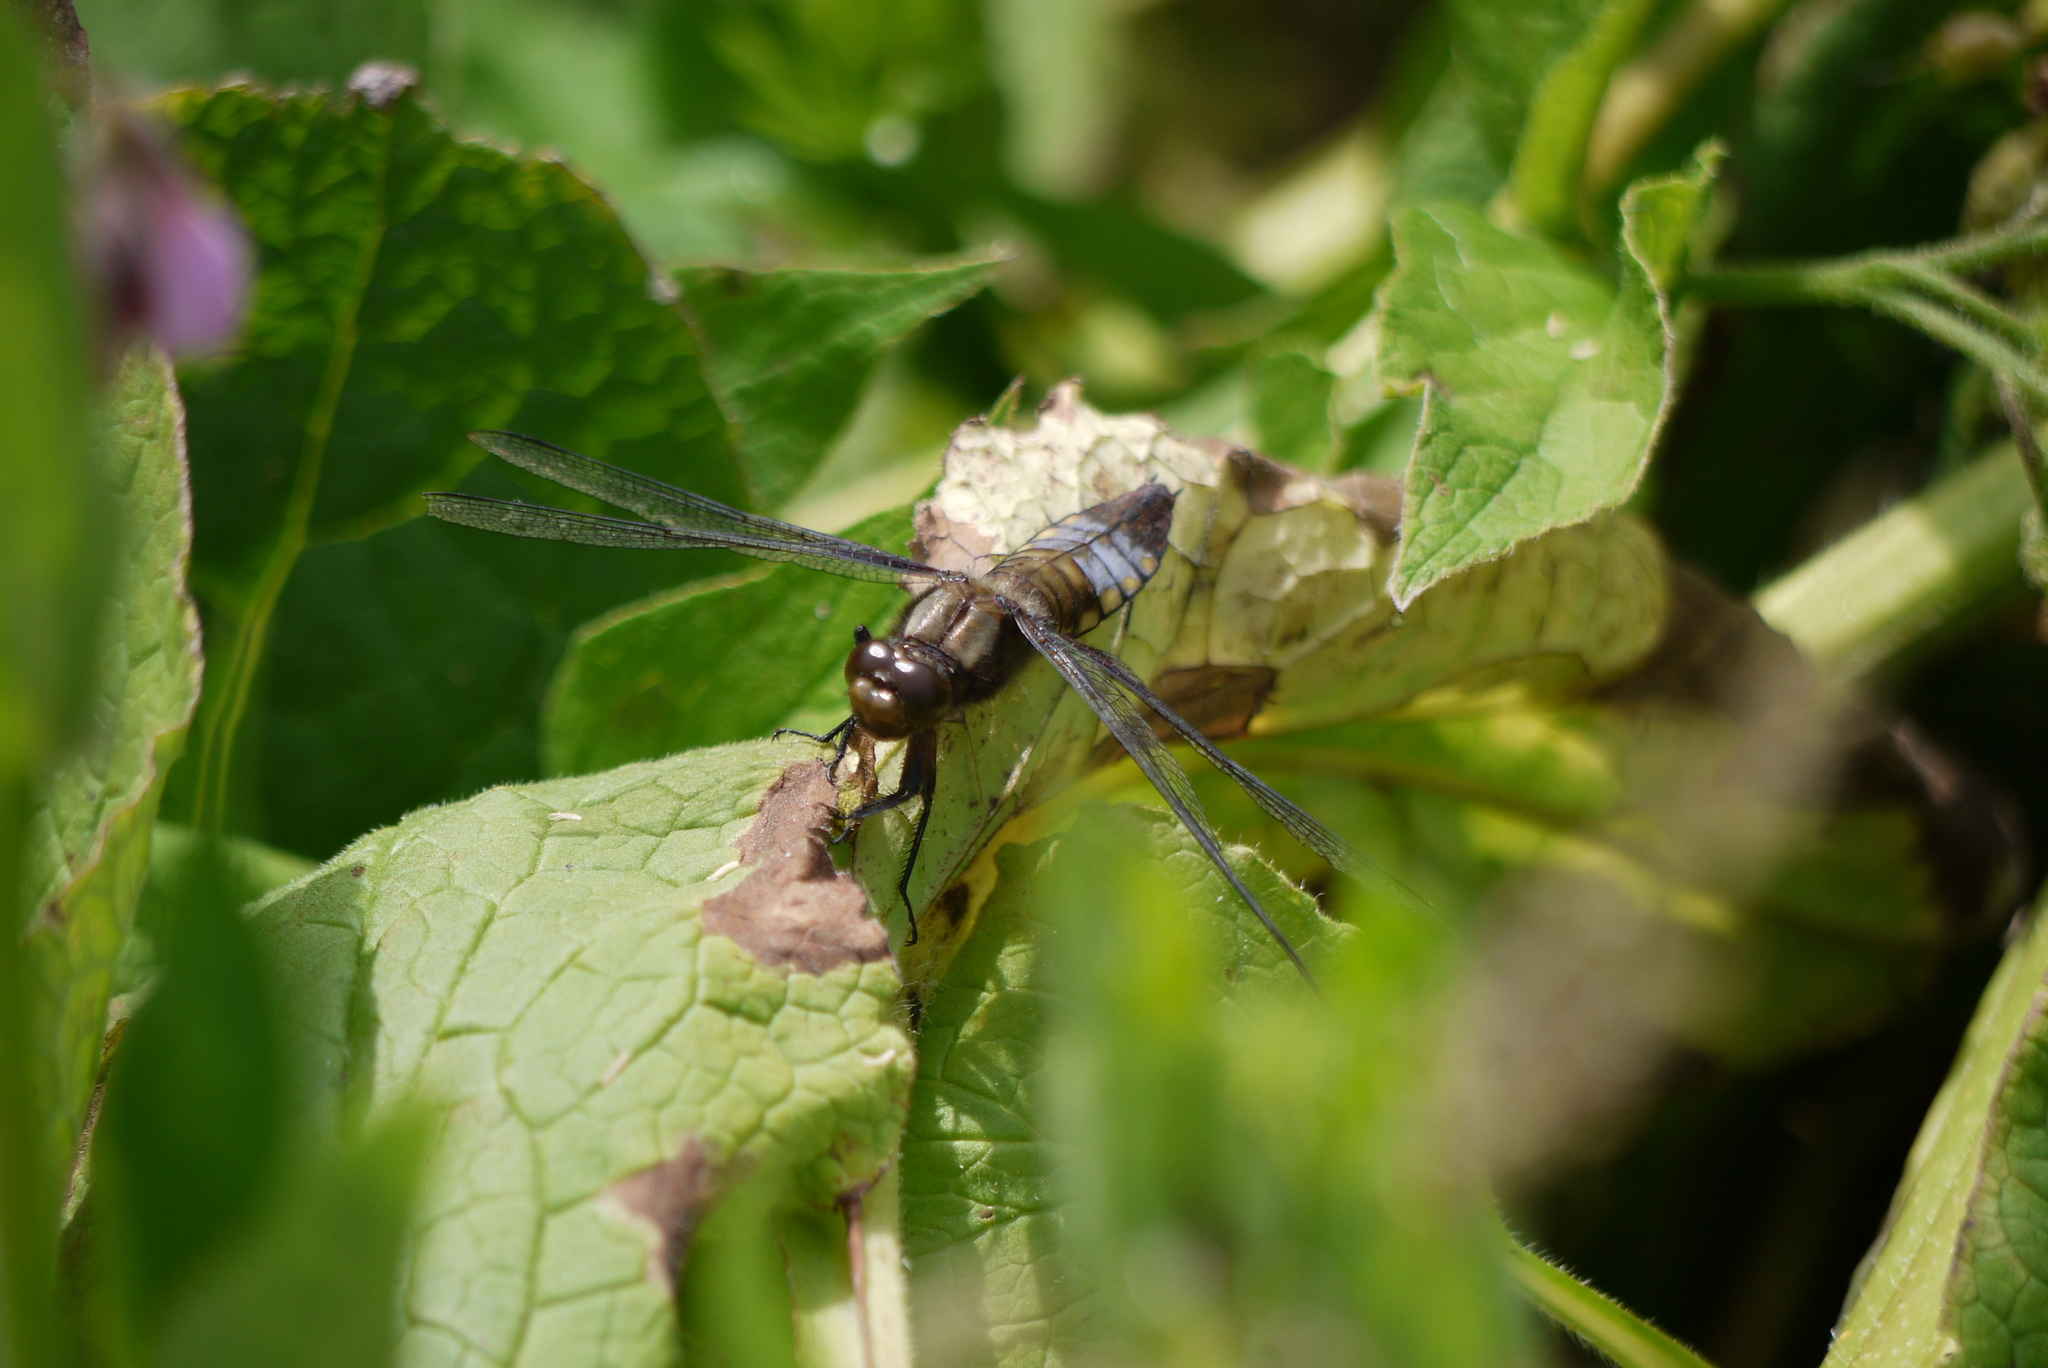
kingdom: Animalia
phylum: Arthropoda
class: Insecta
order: Odonata
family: Libellulidae
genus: Libellula
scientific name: Libellula depressa
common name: Broad-bodied chaser
